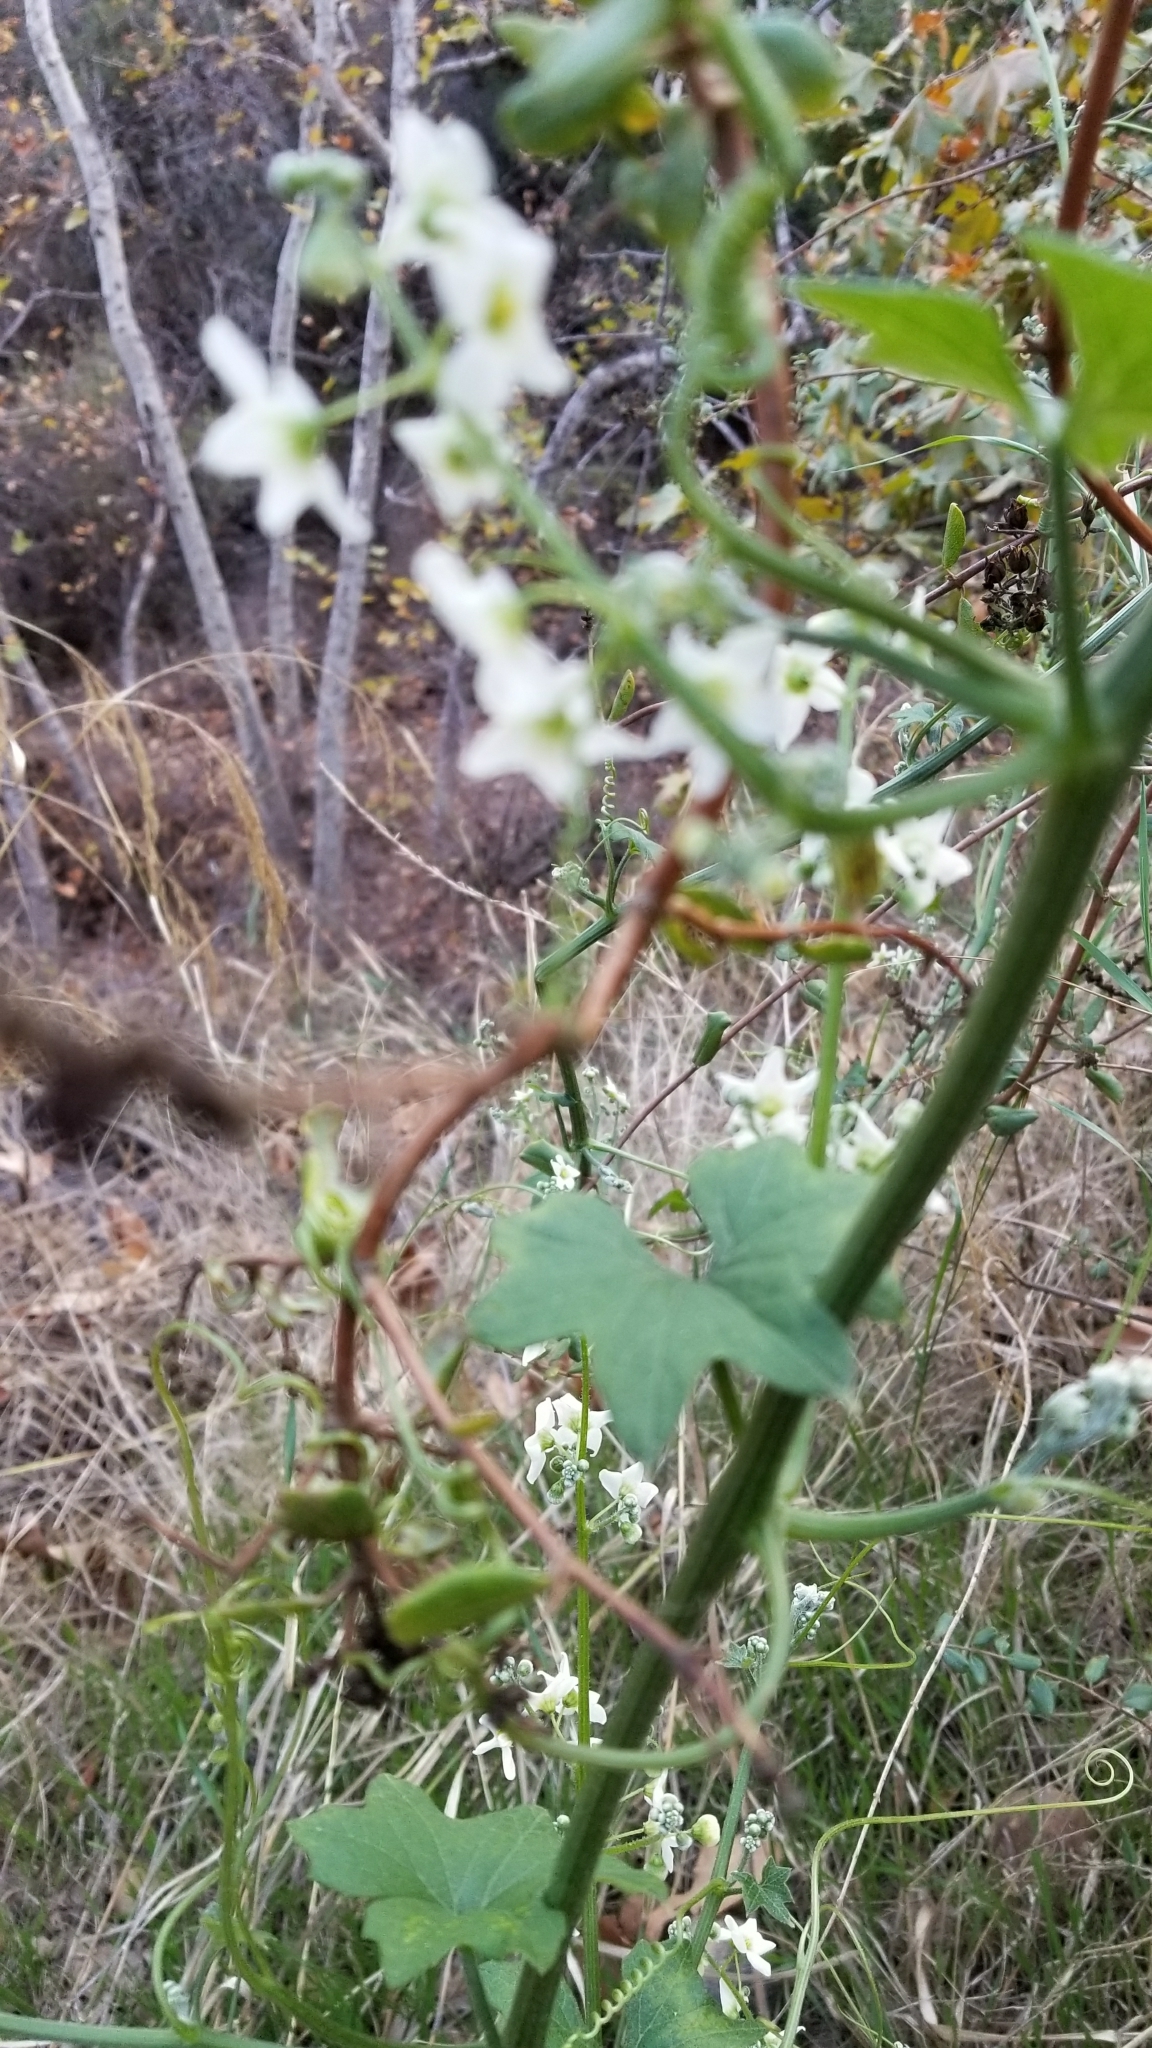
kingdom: Plantae
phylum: Tracheophyta
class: Magnoliopsida
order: Cucurbitales
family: Cucurbitaceae
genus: Marah
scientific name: Marah macrocarpa
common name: Cucamonga manroot
